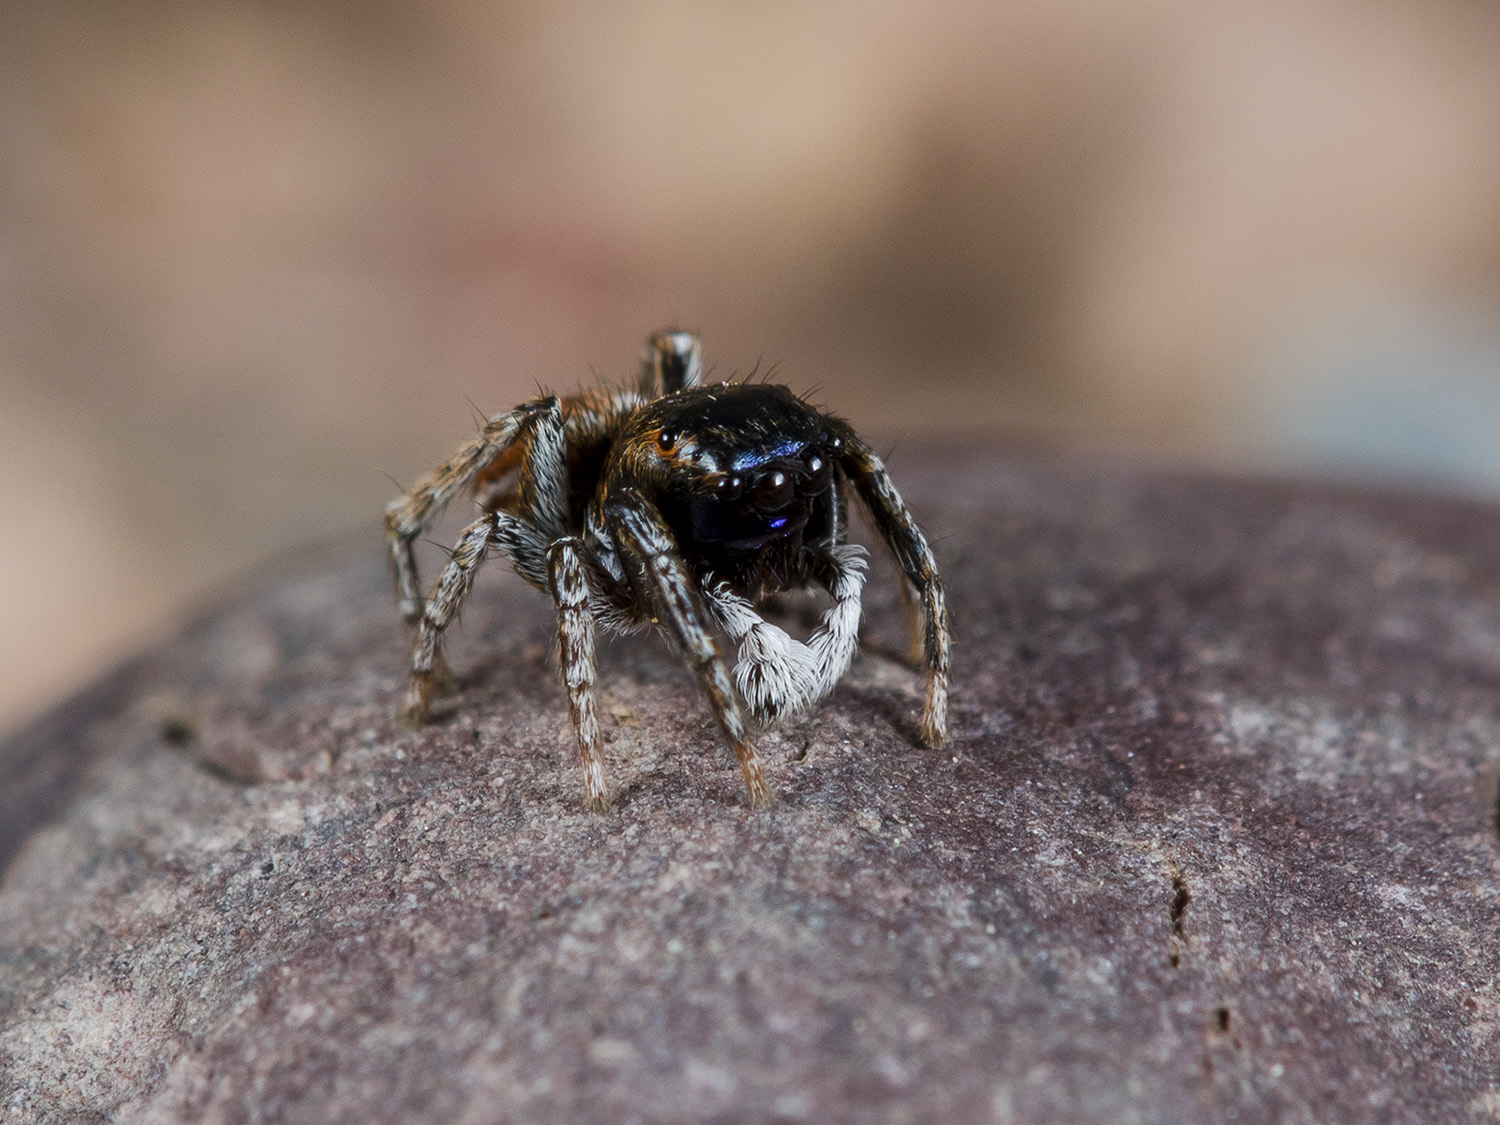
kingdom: Animalia
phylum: Arthropoda
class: Arachnida
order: Araneae
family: Salticidae
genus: Attulus
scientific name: Attulus mirandus
